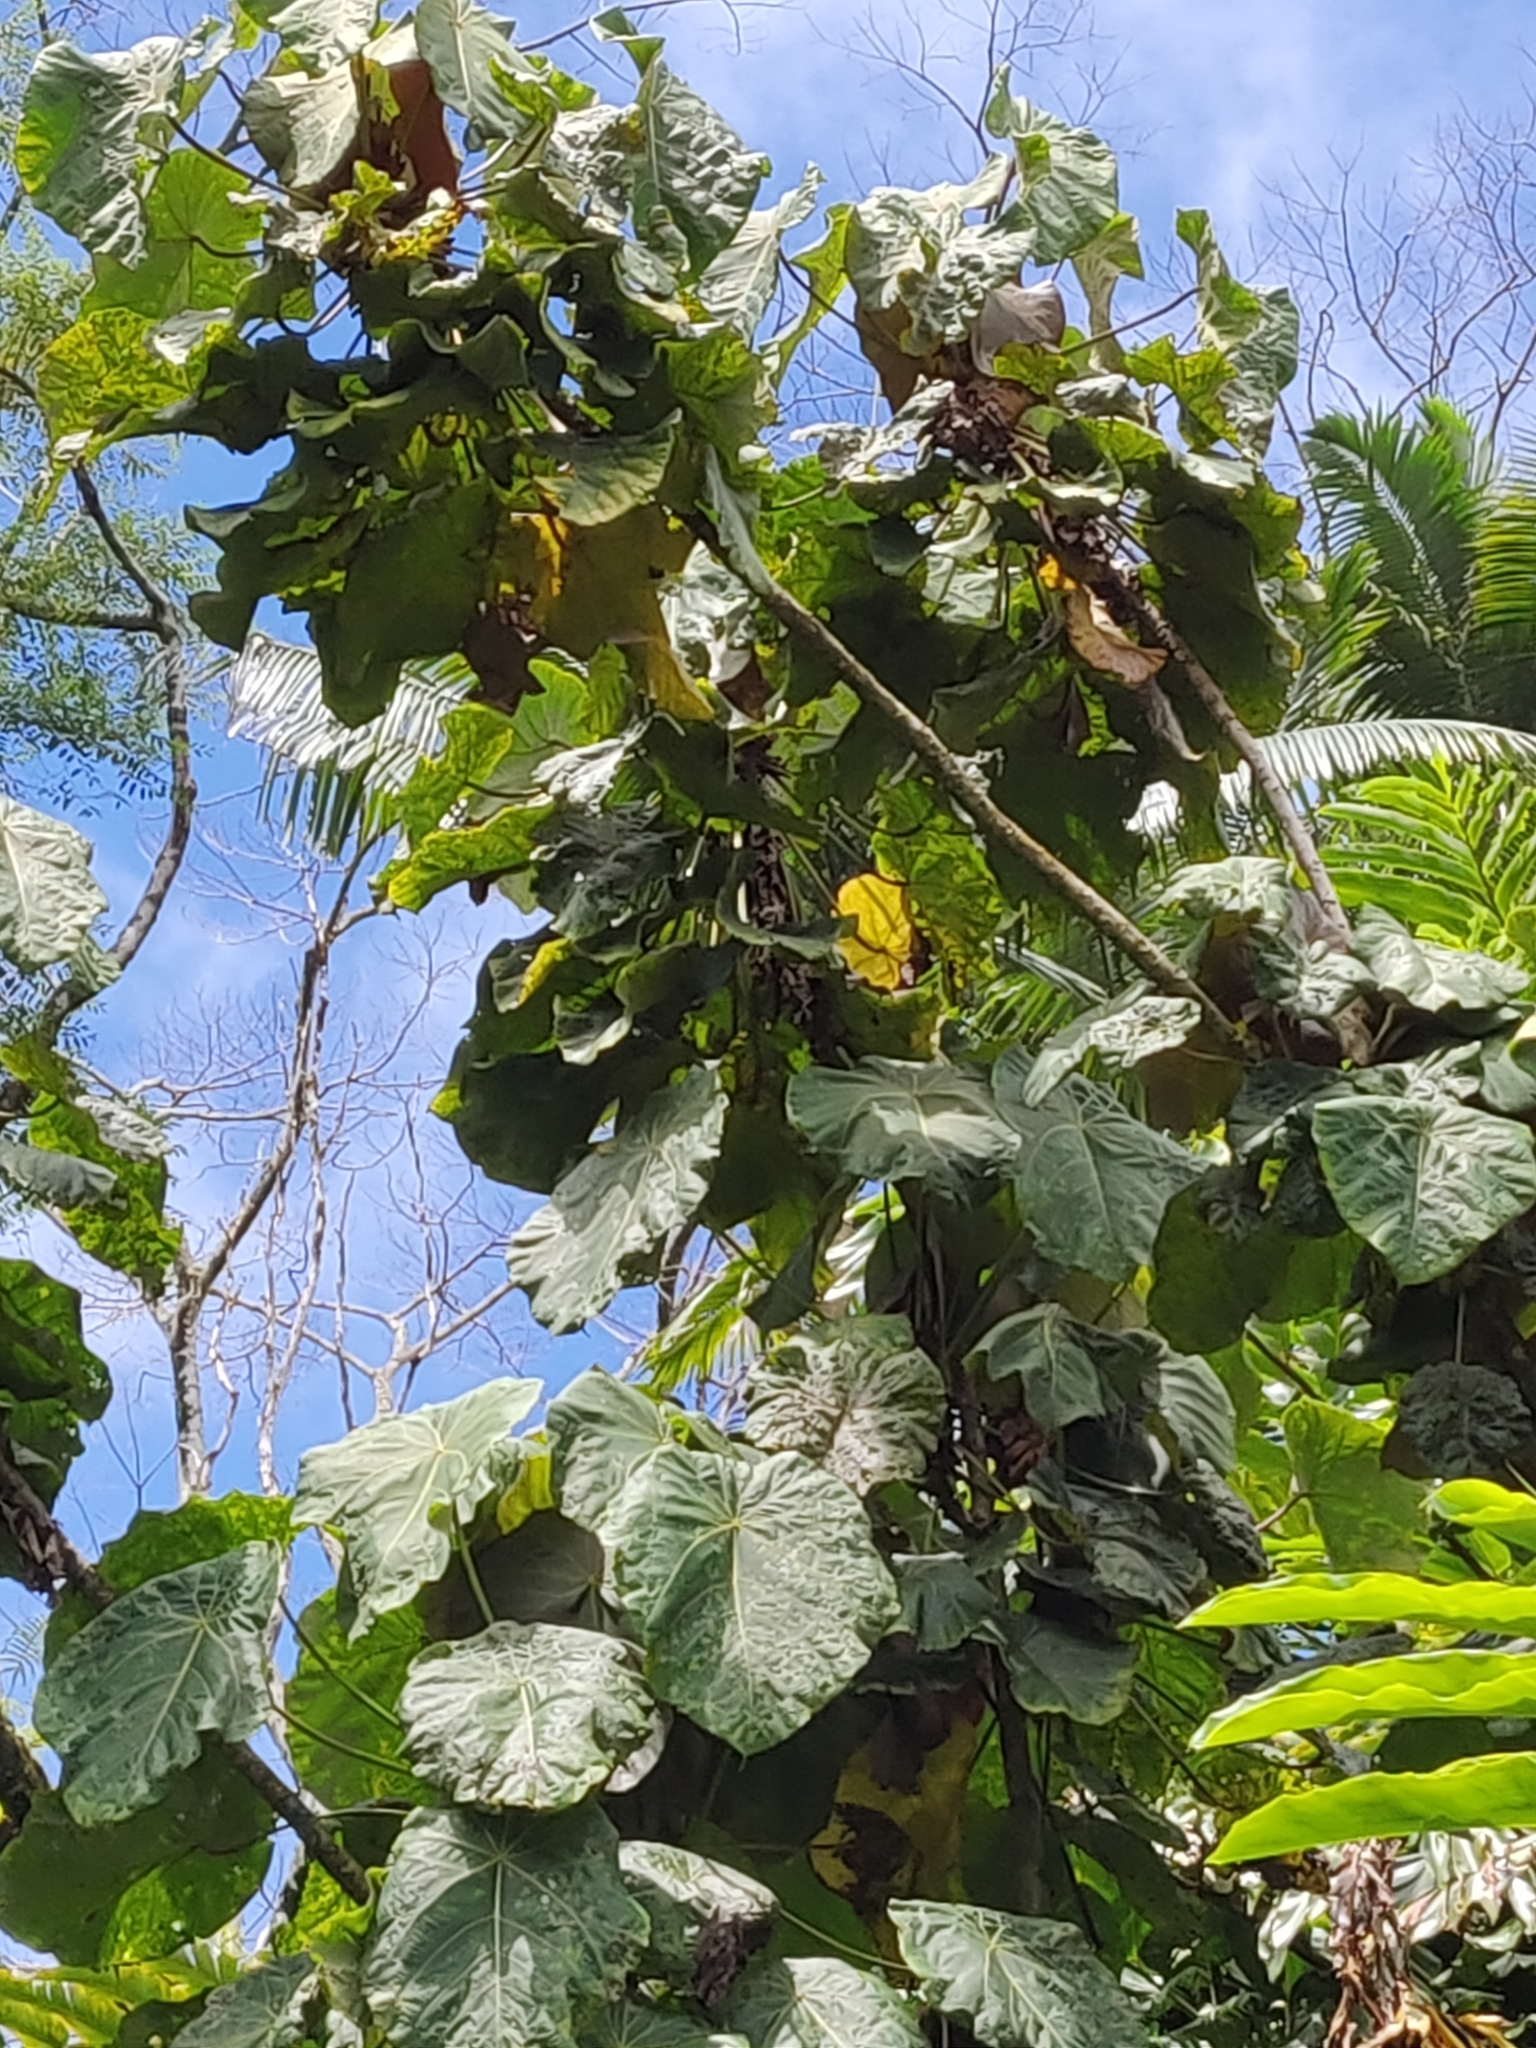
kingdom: Plantae
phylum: Tracheophyta
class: Magnoliopsida
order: Malpighiales
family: Euphorbiaceae
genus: Macaranga
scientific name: Macaranga mappa
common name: Pengua
